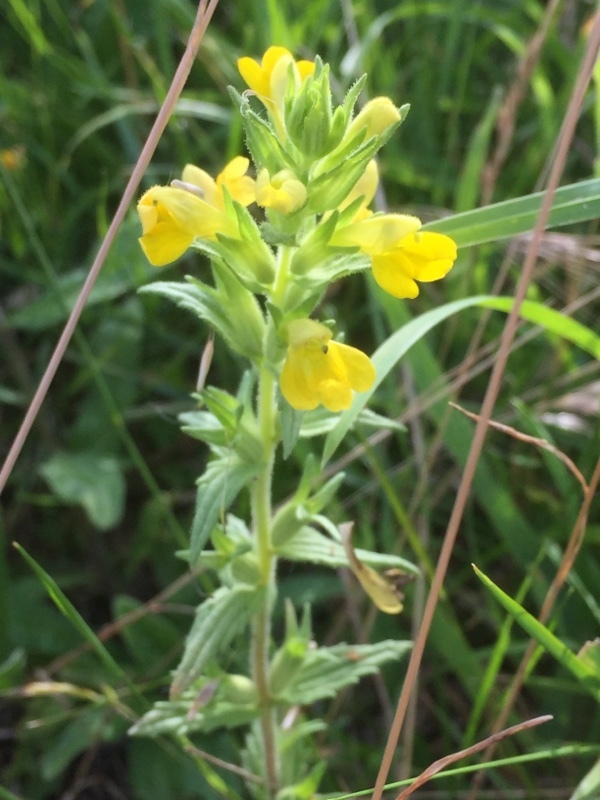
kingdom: Plantae
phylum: Tracheophyta
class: Magnoliopsida
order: Lamiales
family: Orobanchaceae
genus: Bellardia
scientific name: Bellardia viscosa
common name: Sticky parentucellia
